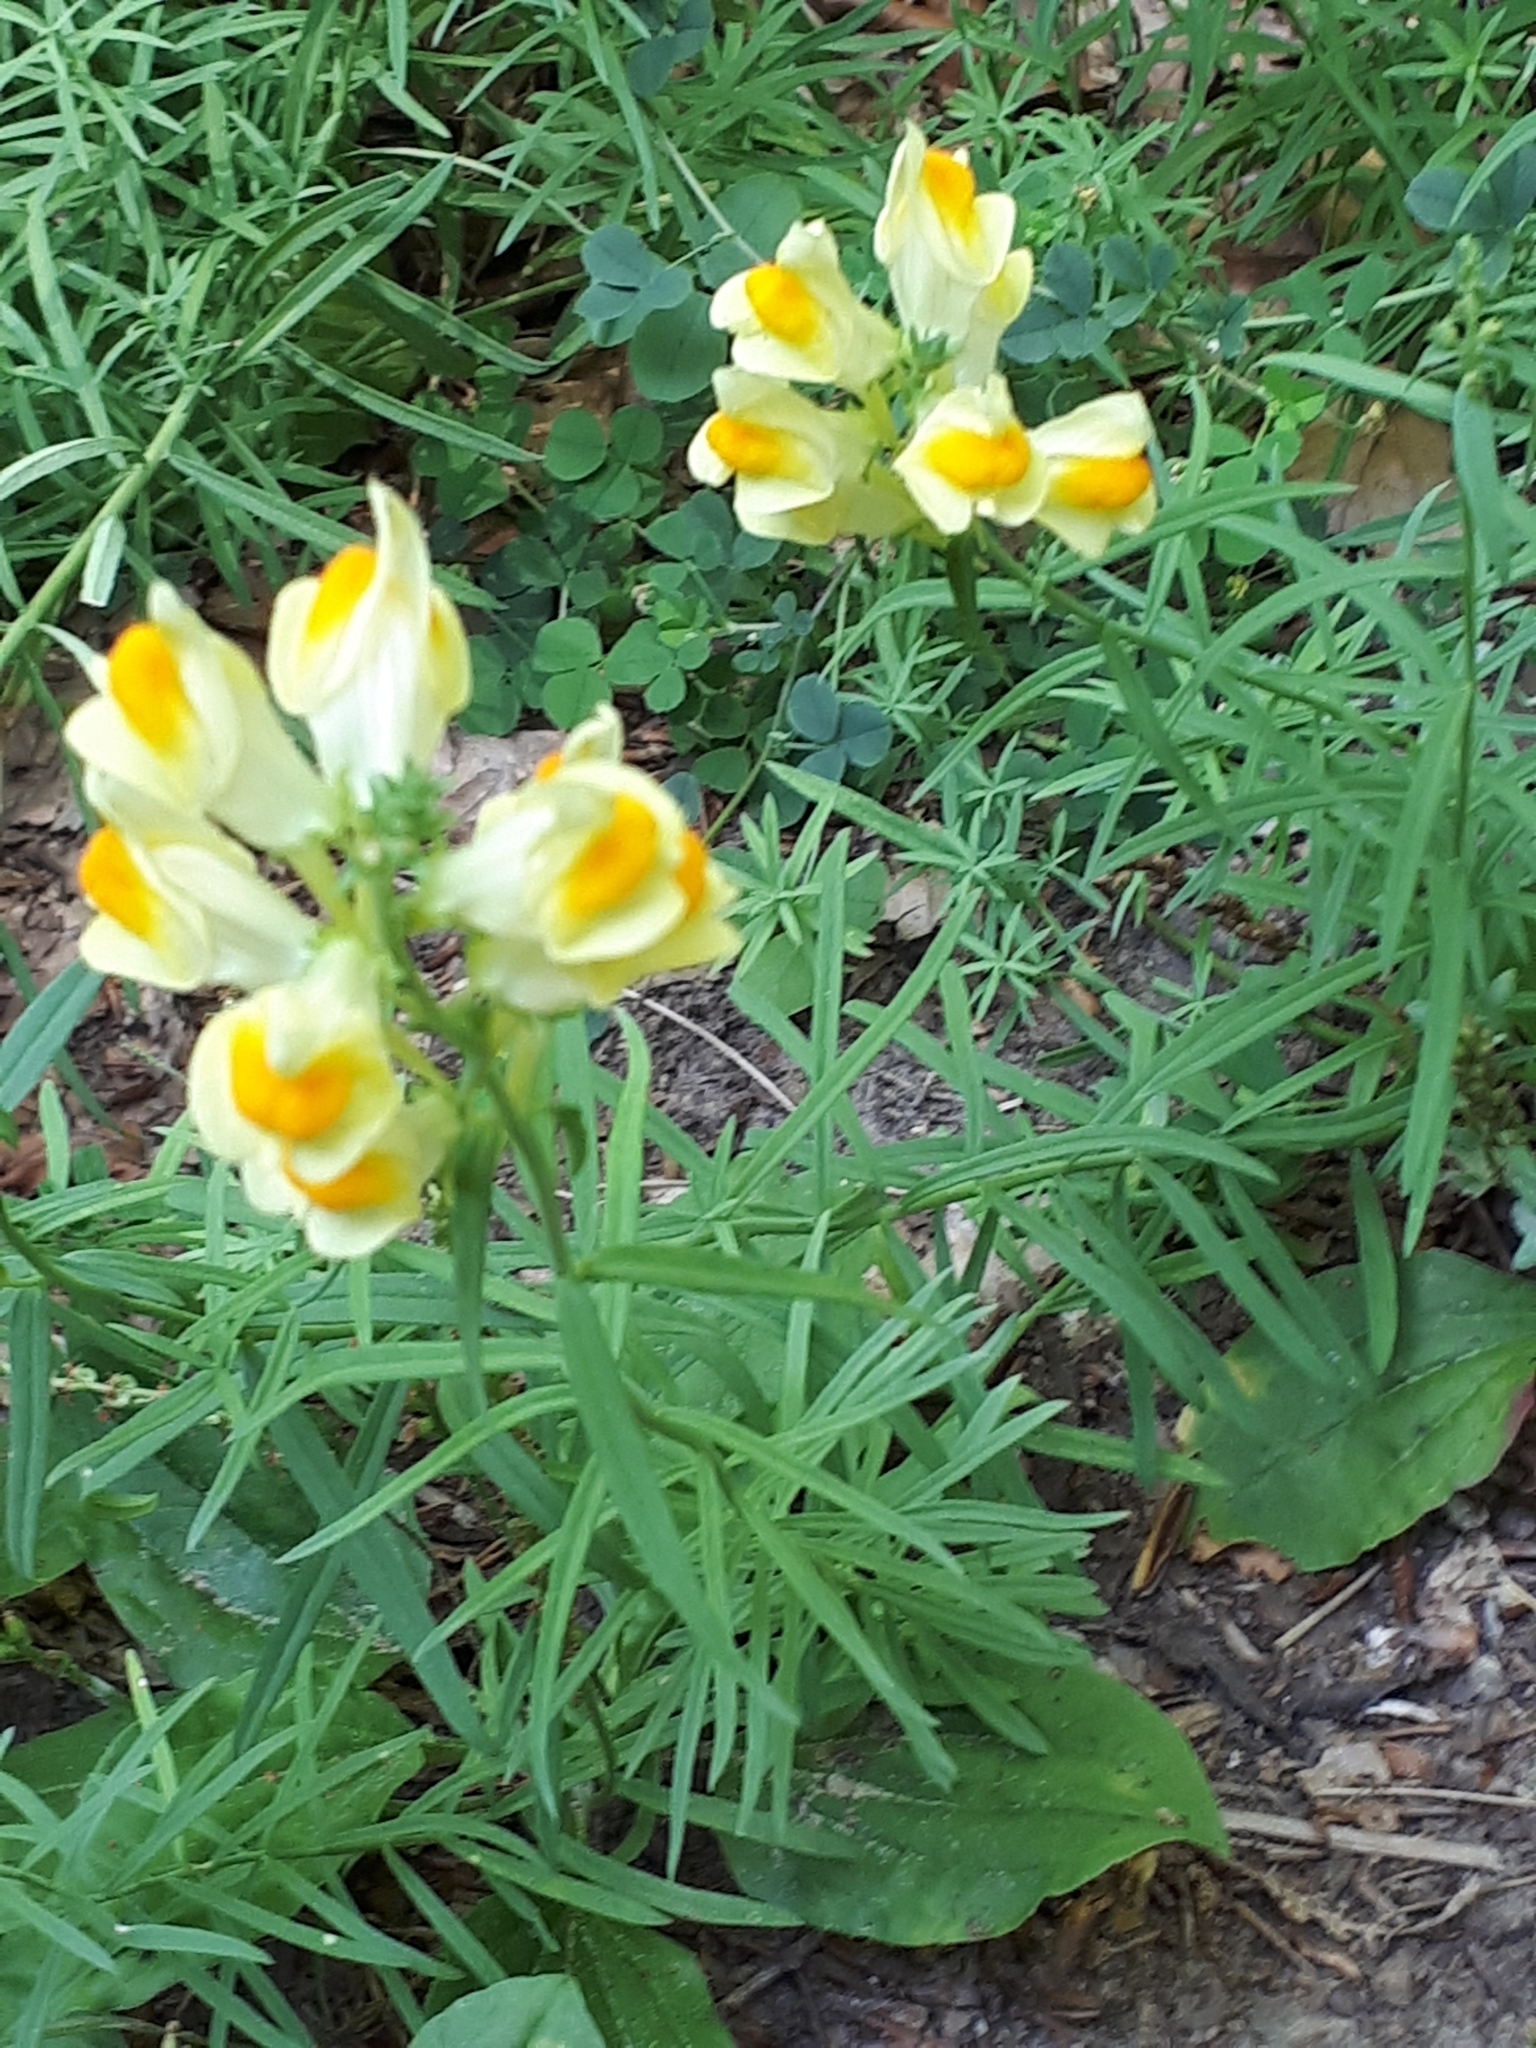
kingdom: Plantae
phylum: Tracheophyta
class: Magnoliopsida
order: Lamiales
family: Plantaginaceae
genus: Linaria
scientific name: Linaria vulgaris
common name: Butter and eggs
